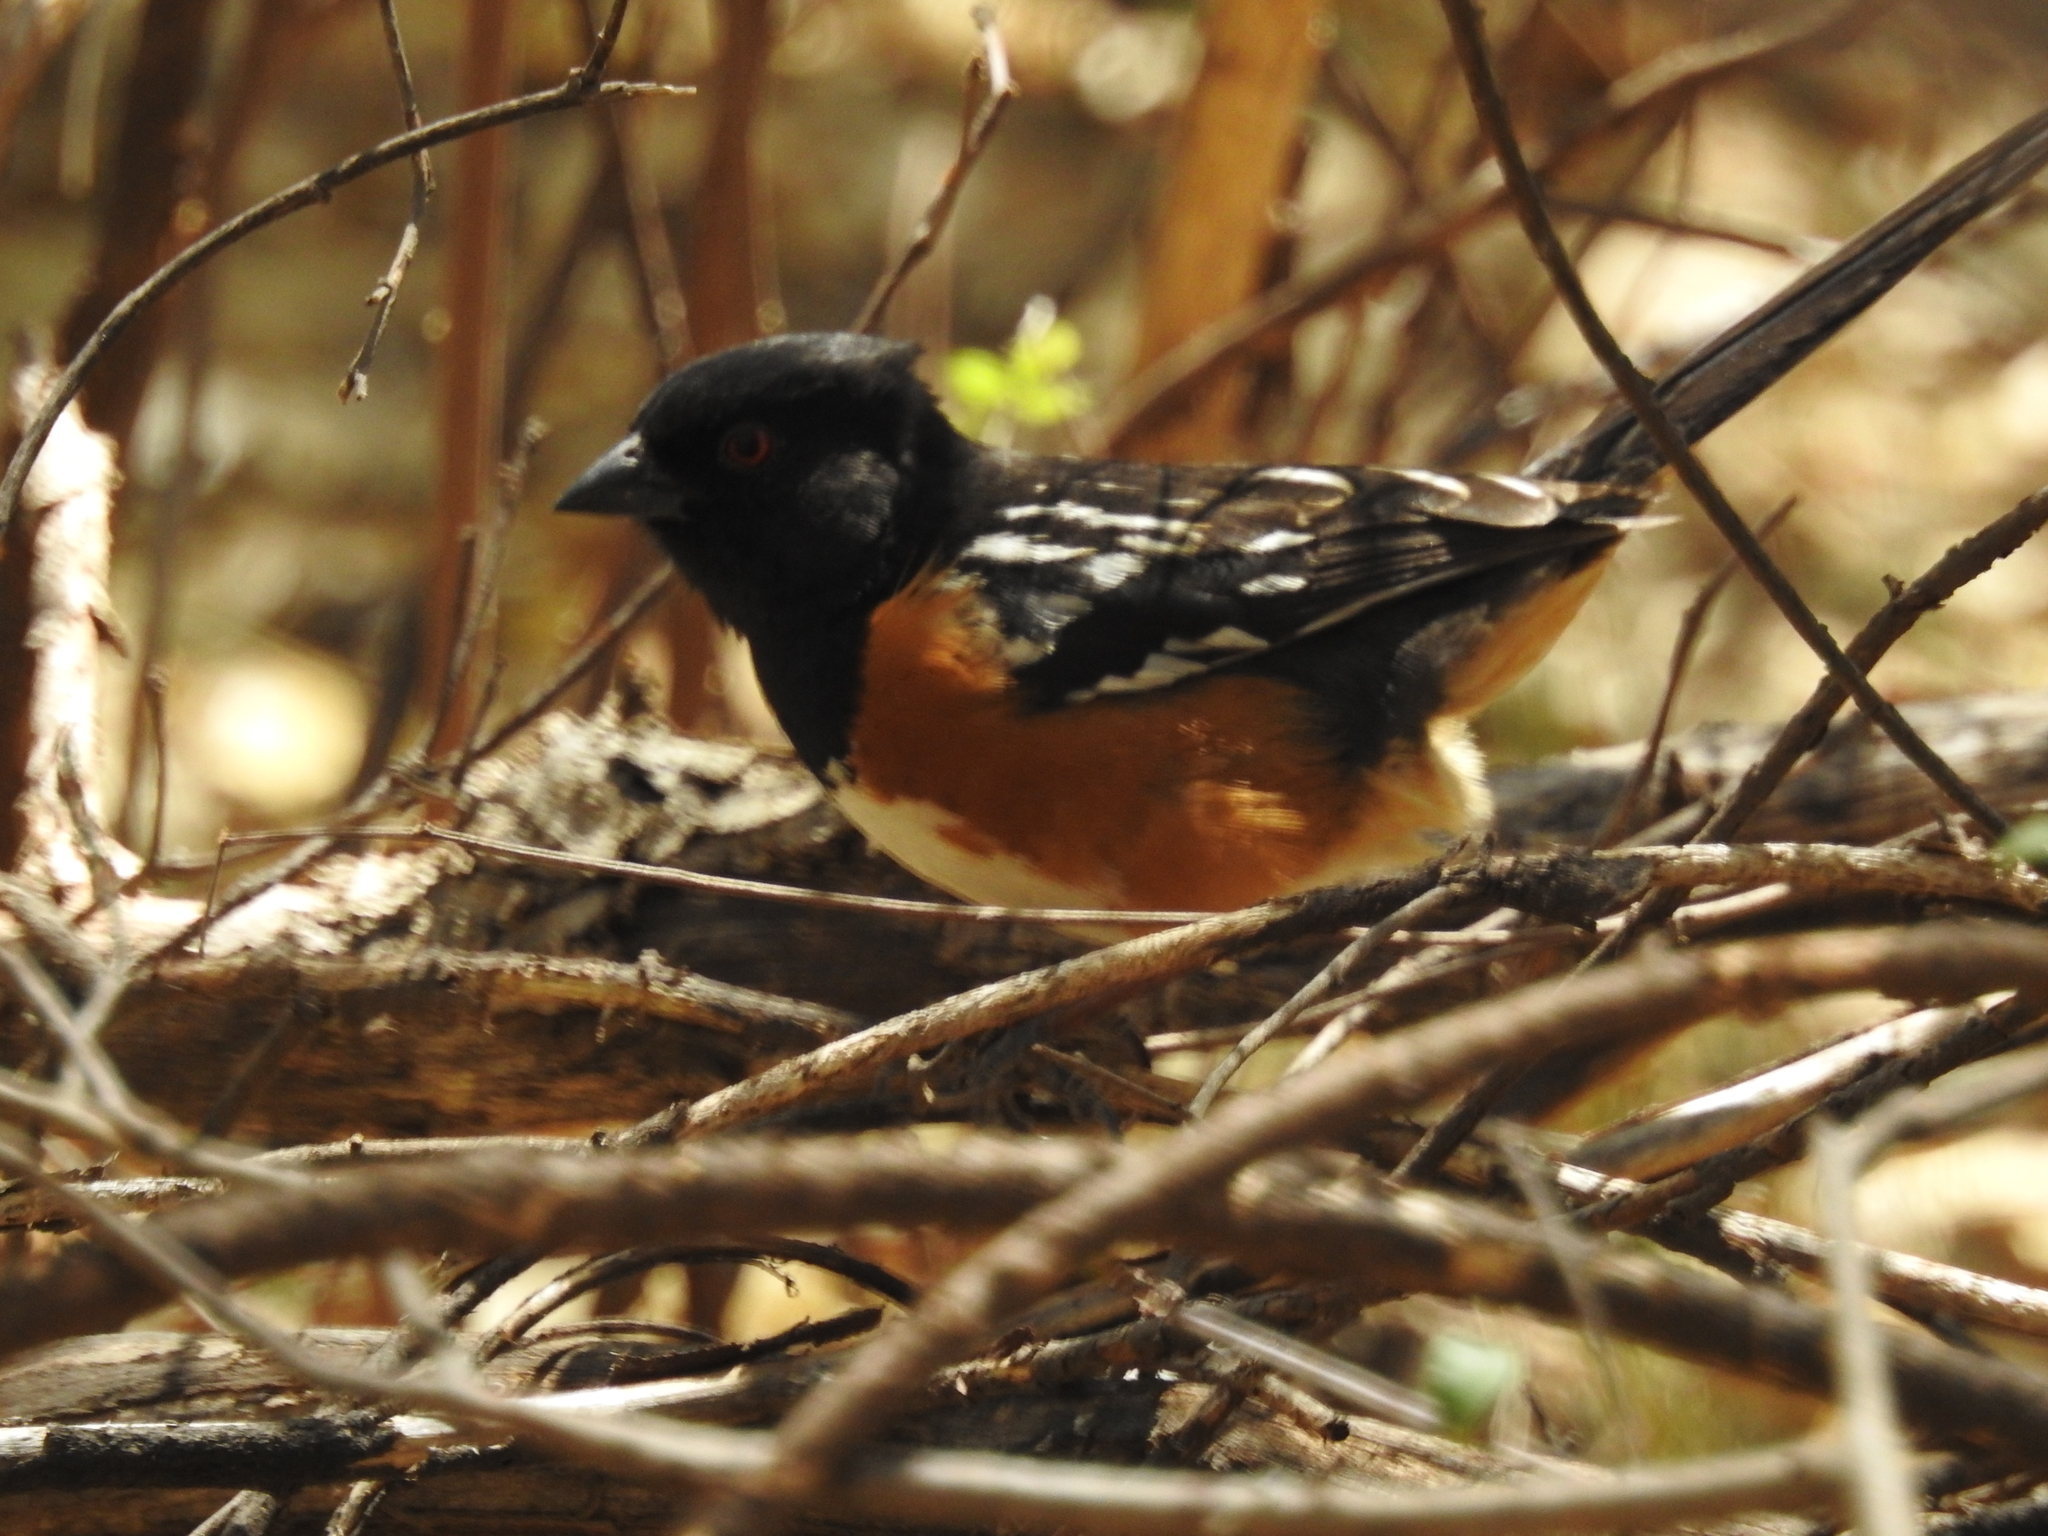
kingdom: Animalia
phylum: Chordata
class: Aves
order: Passeriformes
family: Passerellidae
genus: Pipilo
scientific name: Pipilo maculatus
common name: Spotted towhee
